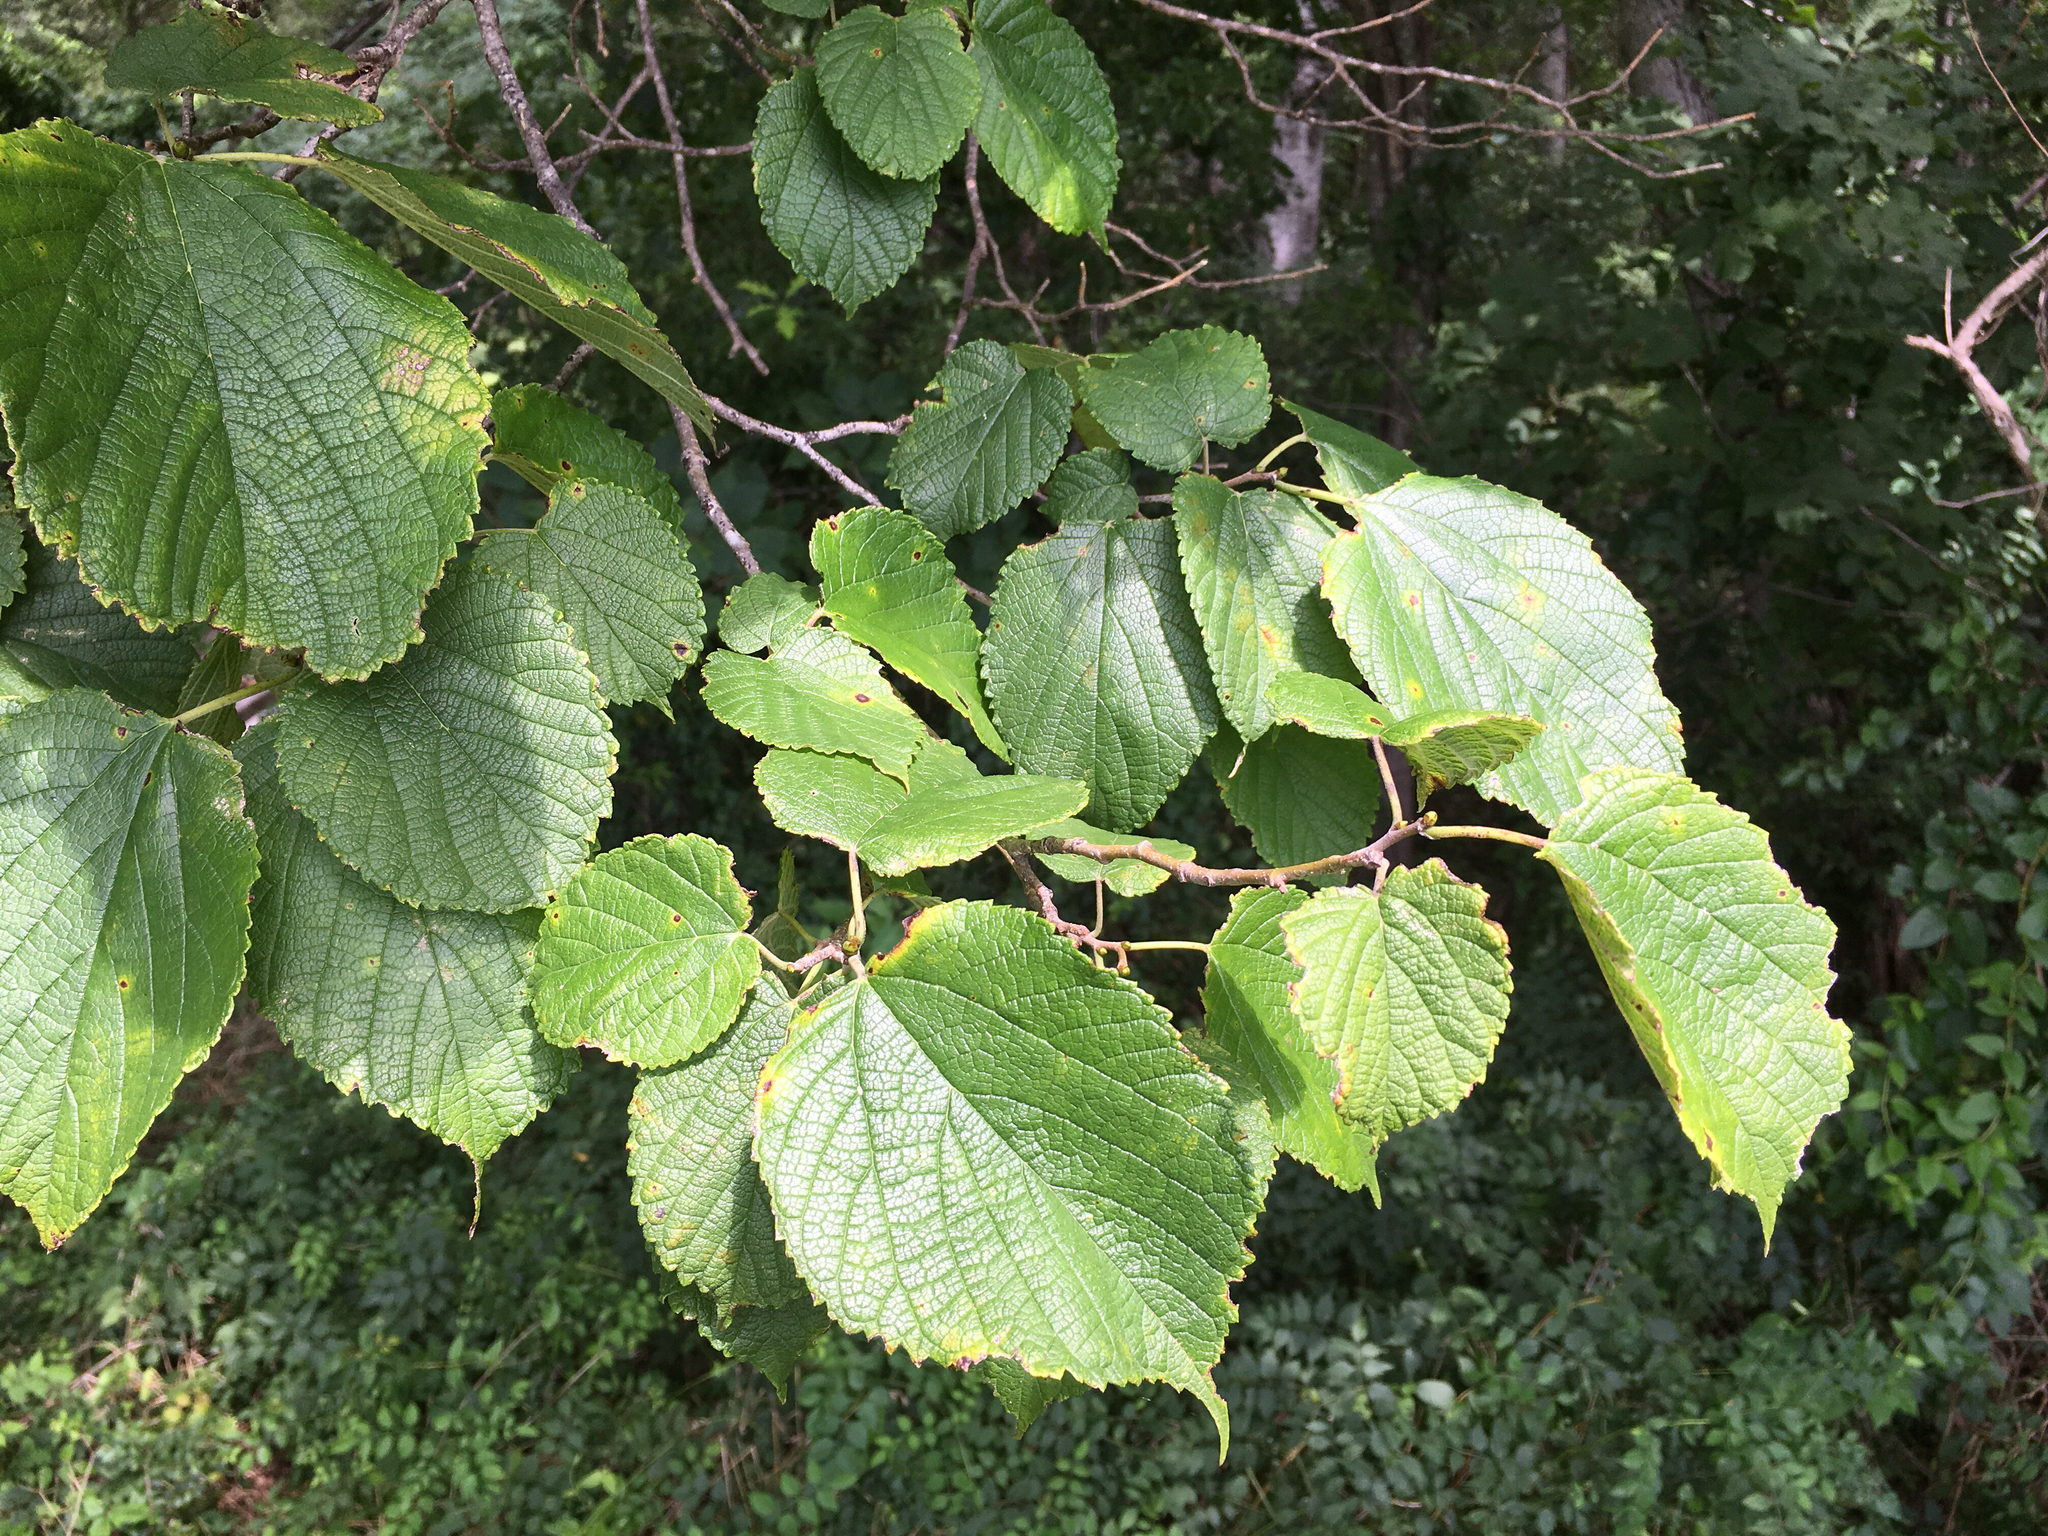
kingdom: Plantae
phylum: Tracheophyta
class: Magnoliopsida
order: Rosales
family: Moraceae
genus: Morus
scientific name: Morus rubra
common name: Red mulberry
